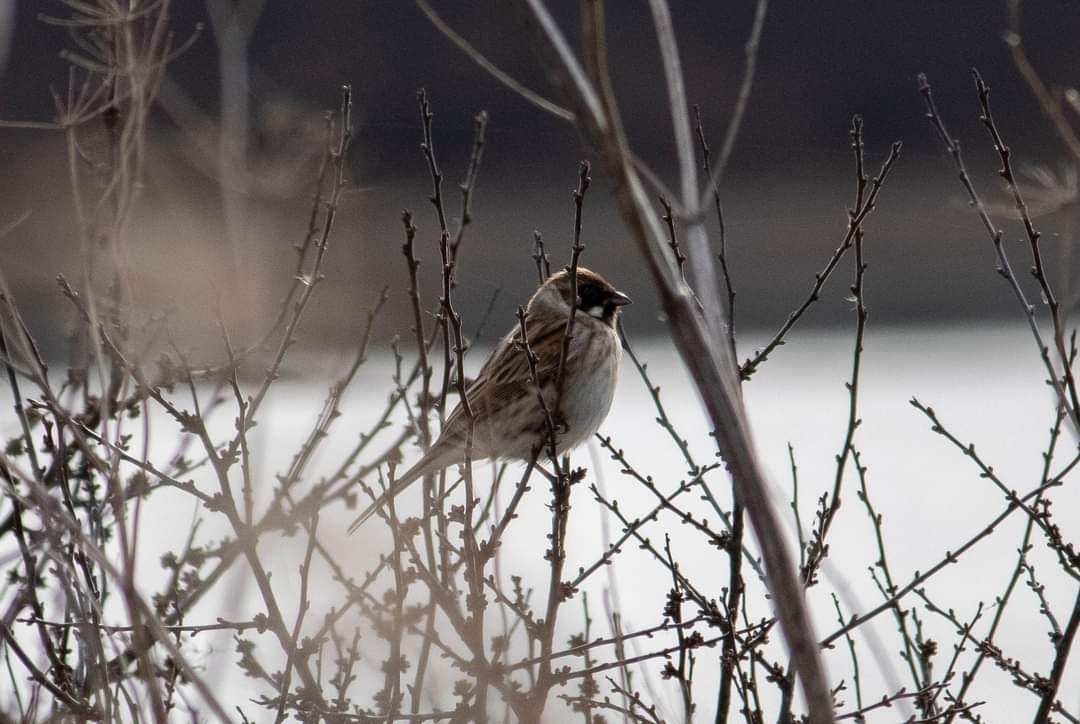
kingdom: Animalia
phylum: Chordata
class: Aves
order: Passeriformes
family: Emberizidae
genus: Emberiza
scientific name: Emberiza schoeniclus
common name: Reed bunting
